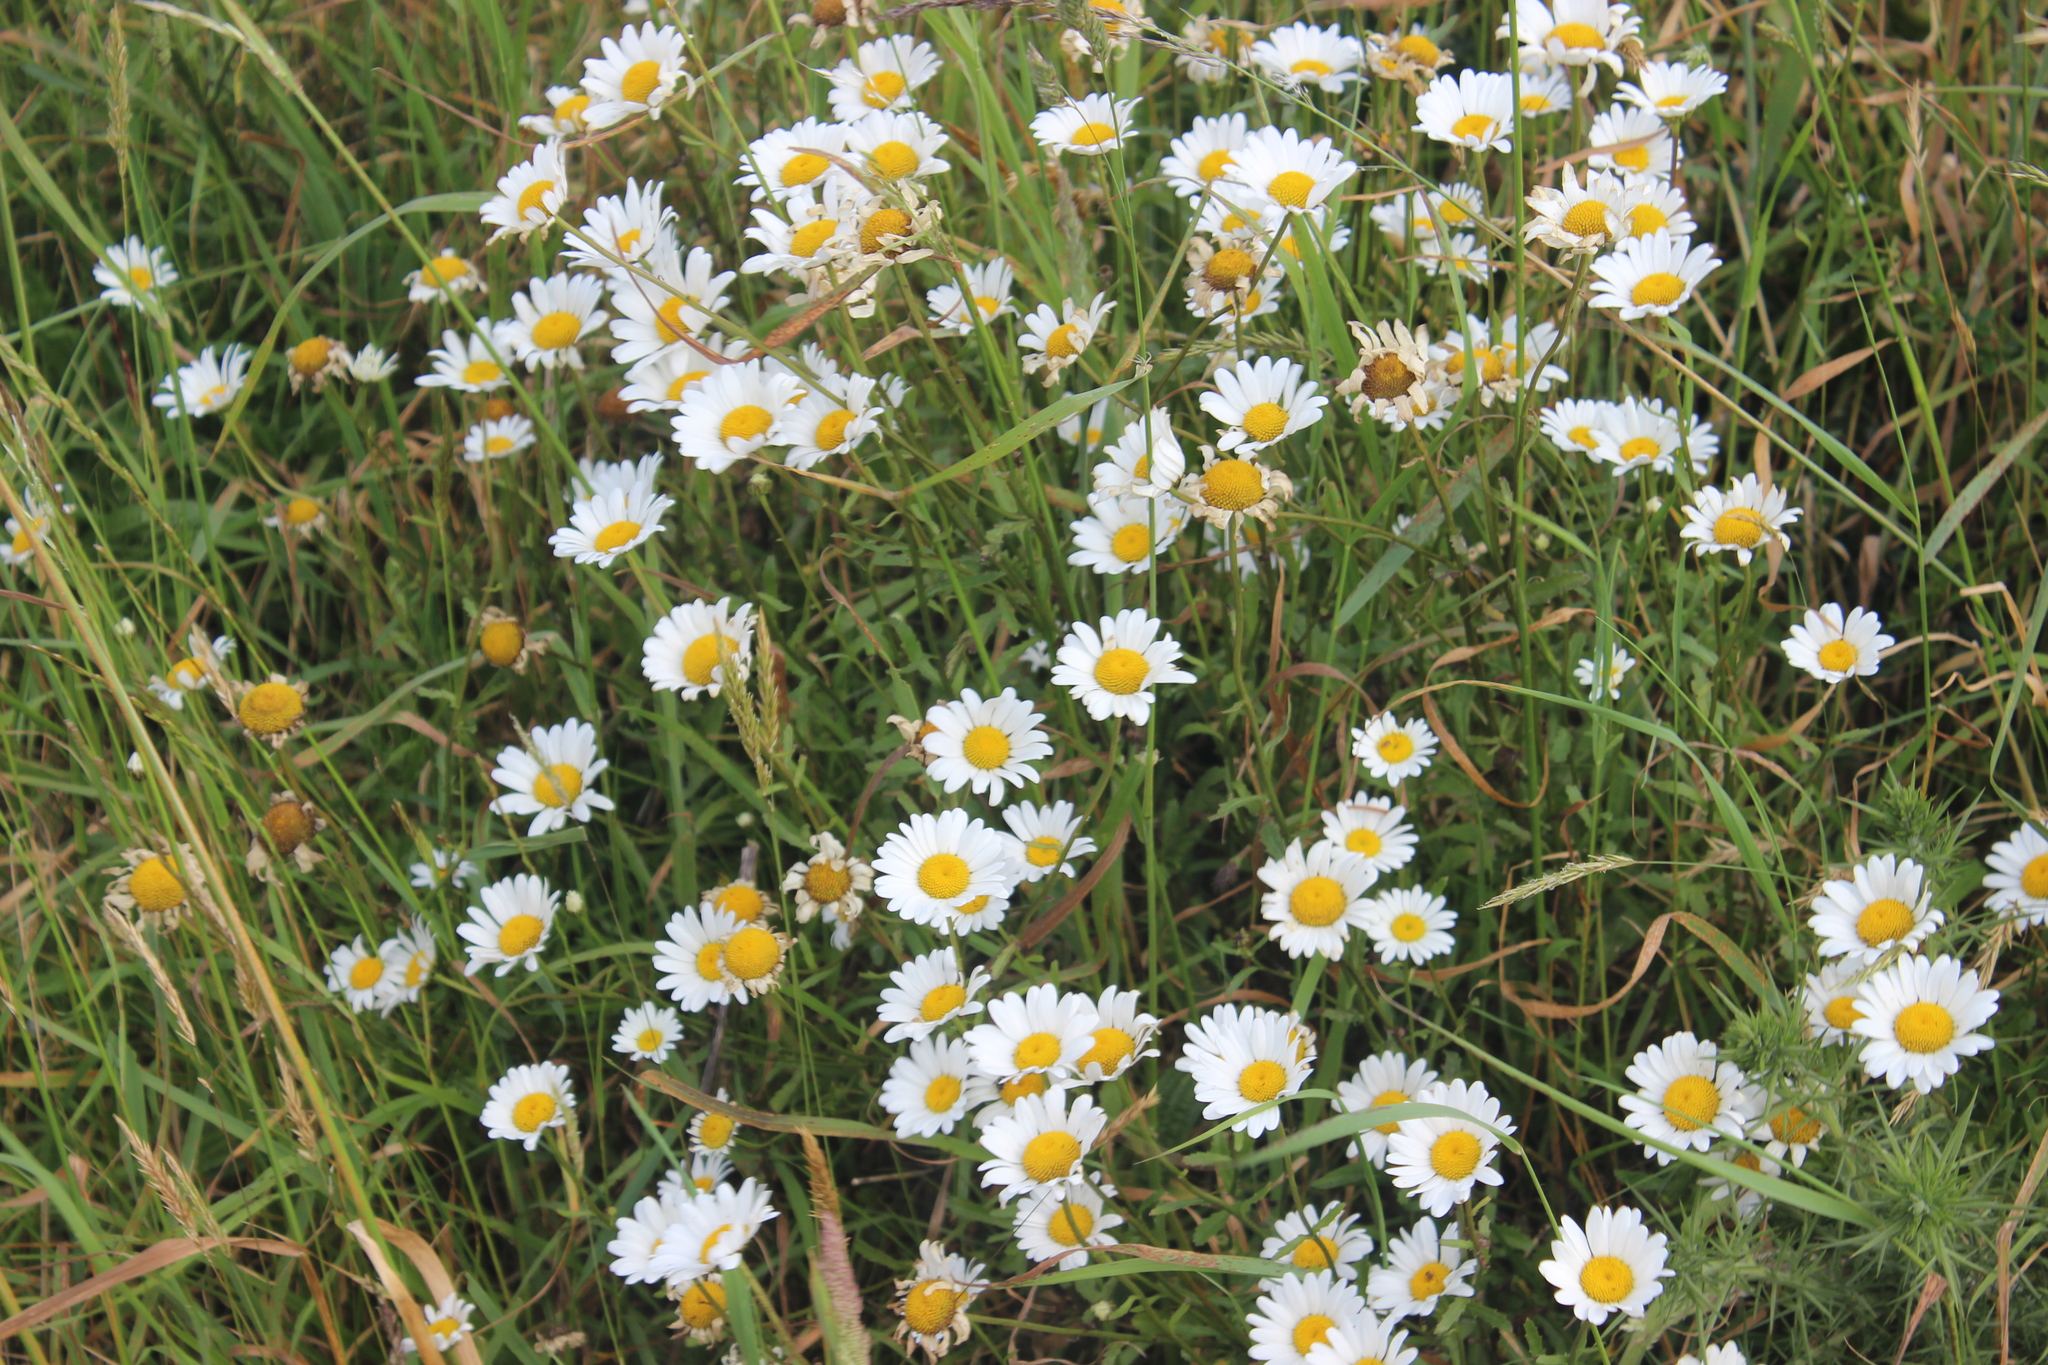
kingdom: Plantae
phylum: Tracheophyta
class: Magnoliopsida
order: Asterales
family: Asteraceae
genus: Leucanthemum
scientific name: Leucanthemum vulgare
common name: Oxeye daisy
